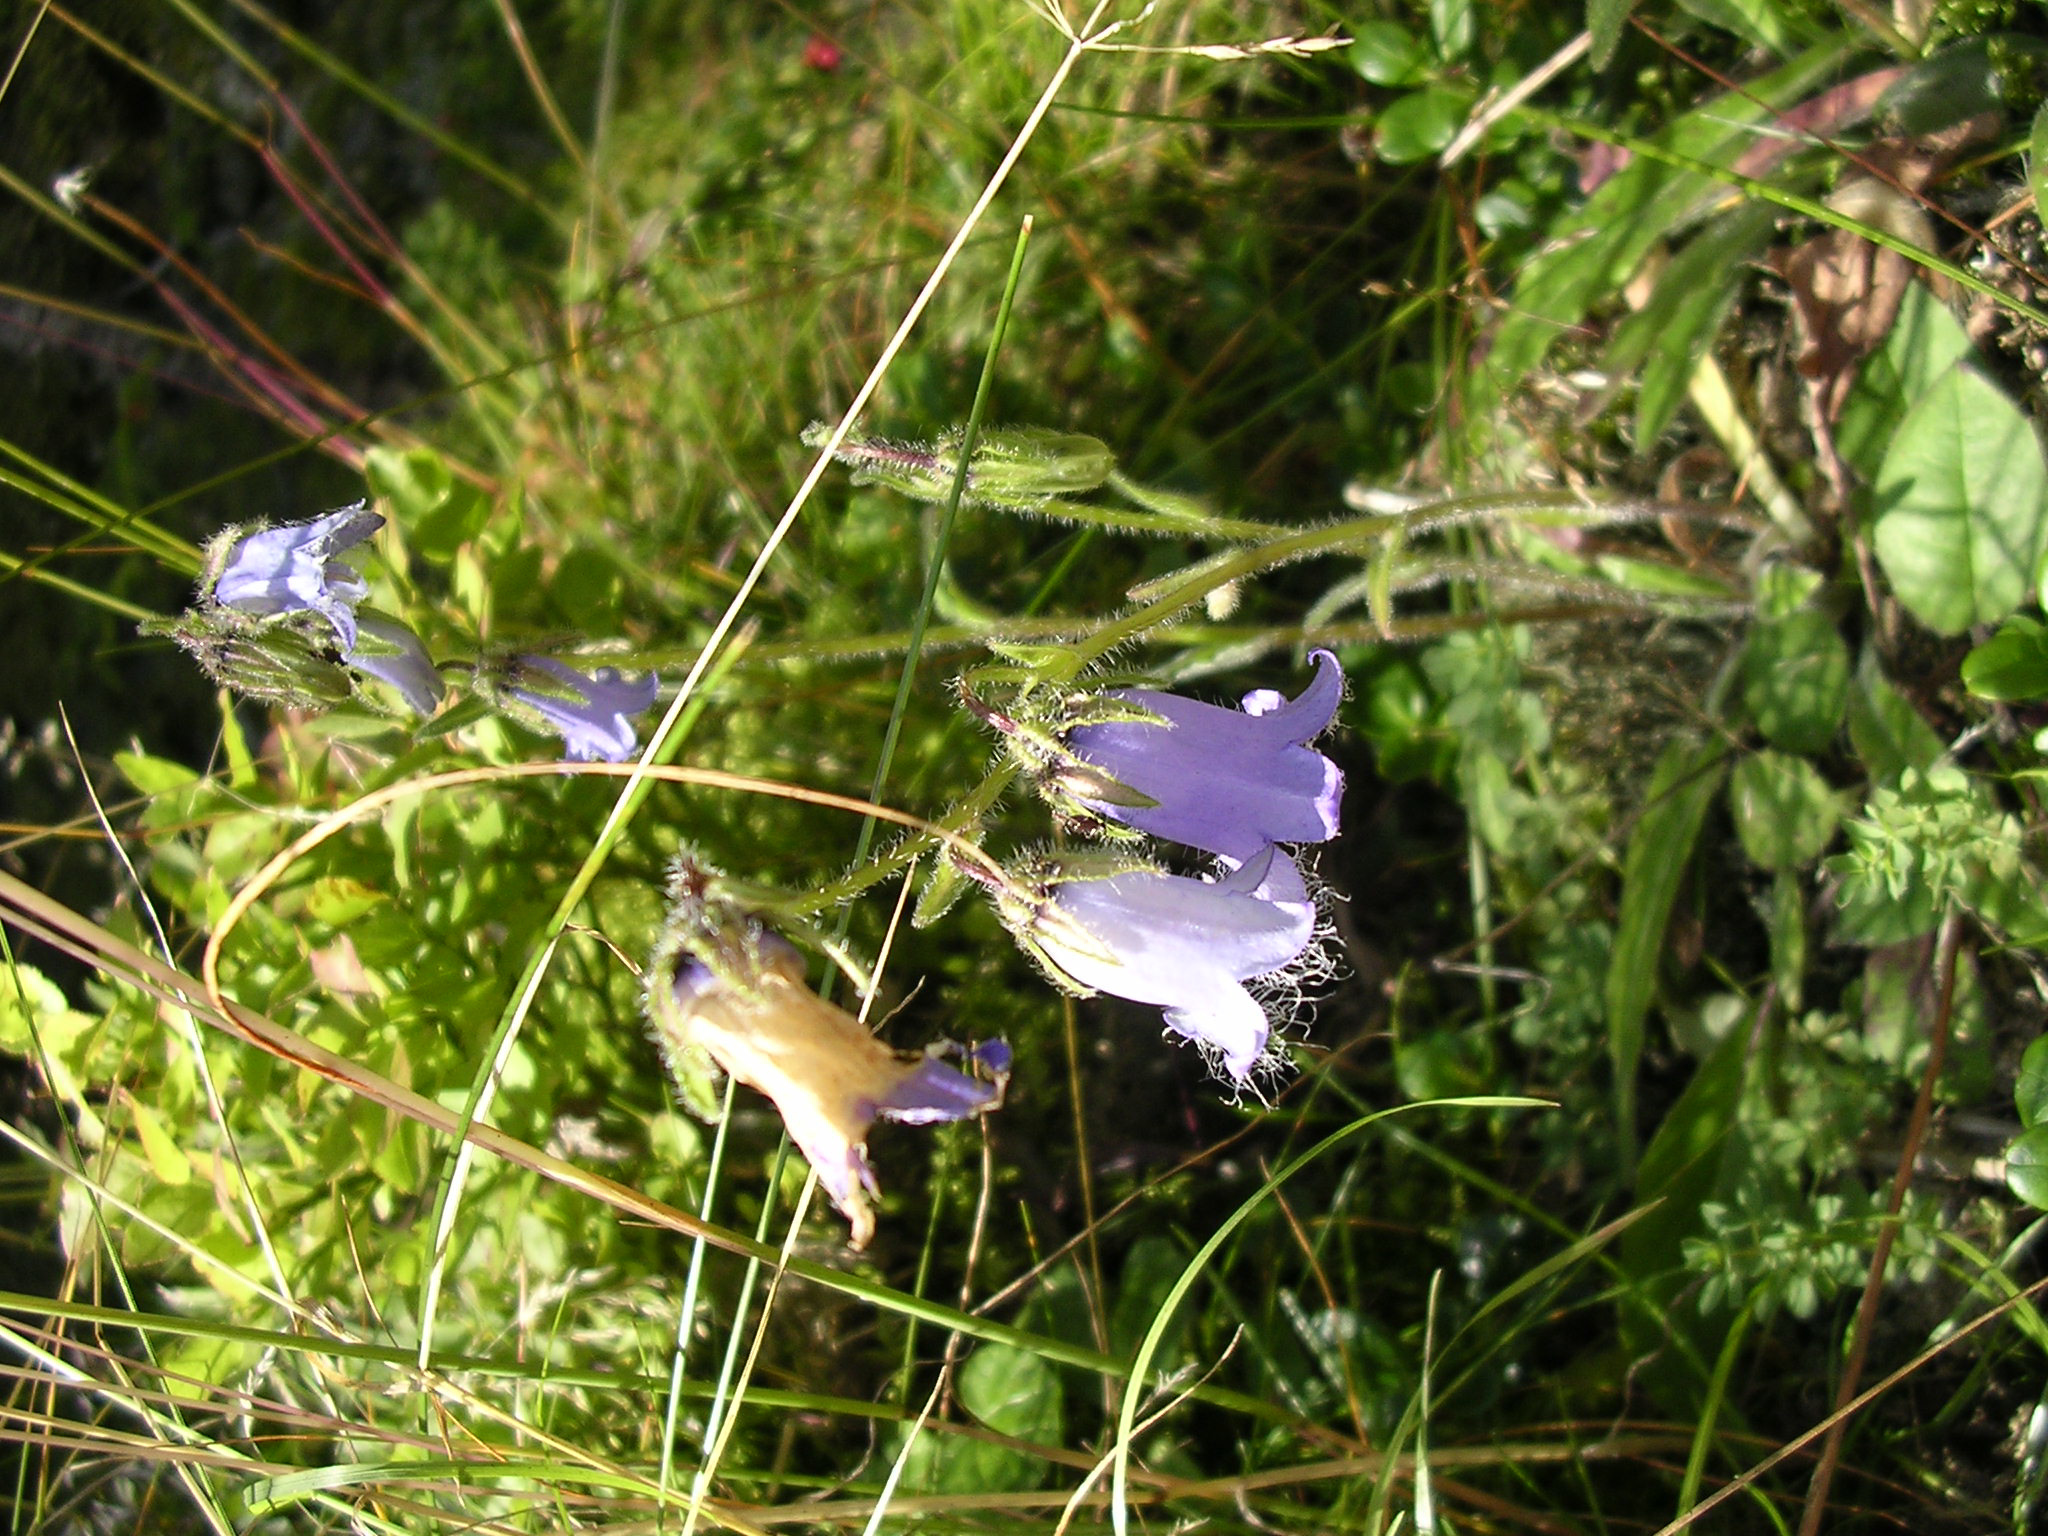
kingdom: Plantae
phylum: Tracheophyta
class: Magnoliopsida
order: Asterales
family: Campanulaceae
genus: Campanula
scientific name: Campanula barbata
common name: Bearded bellflower
